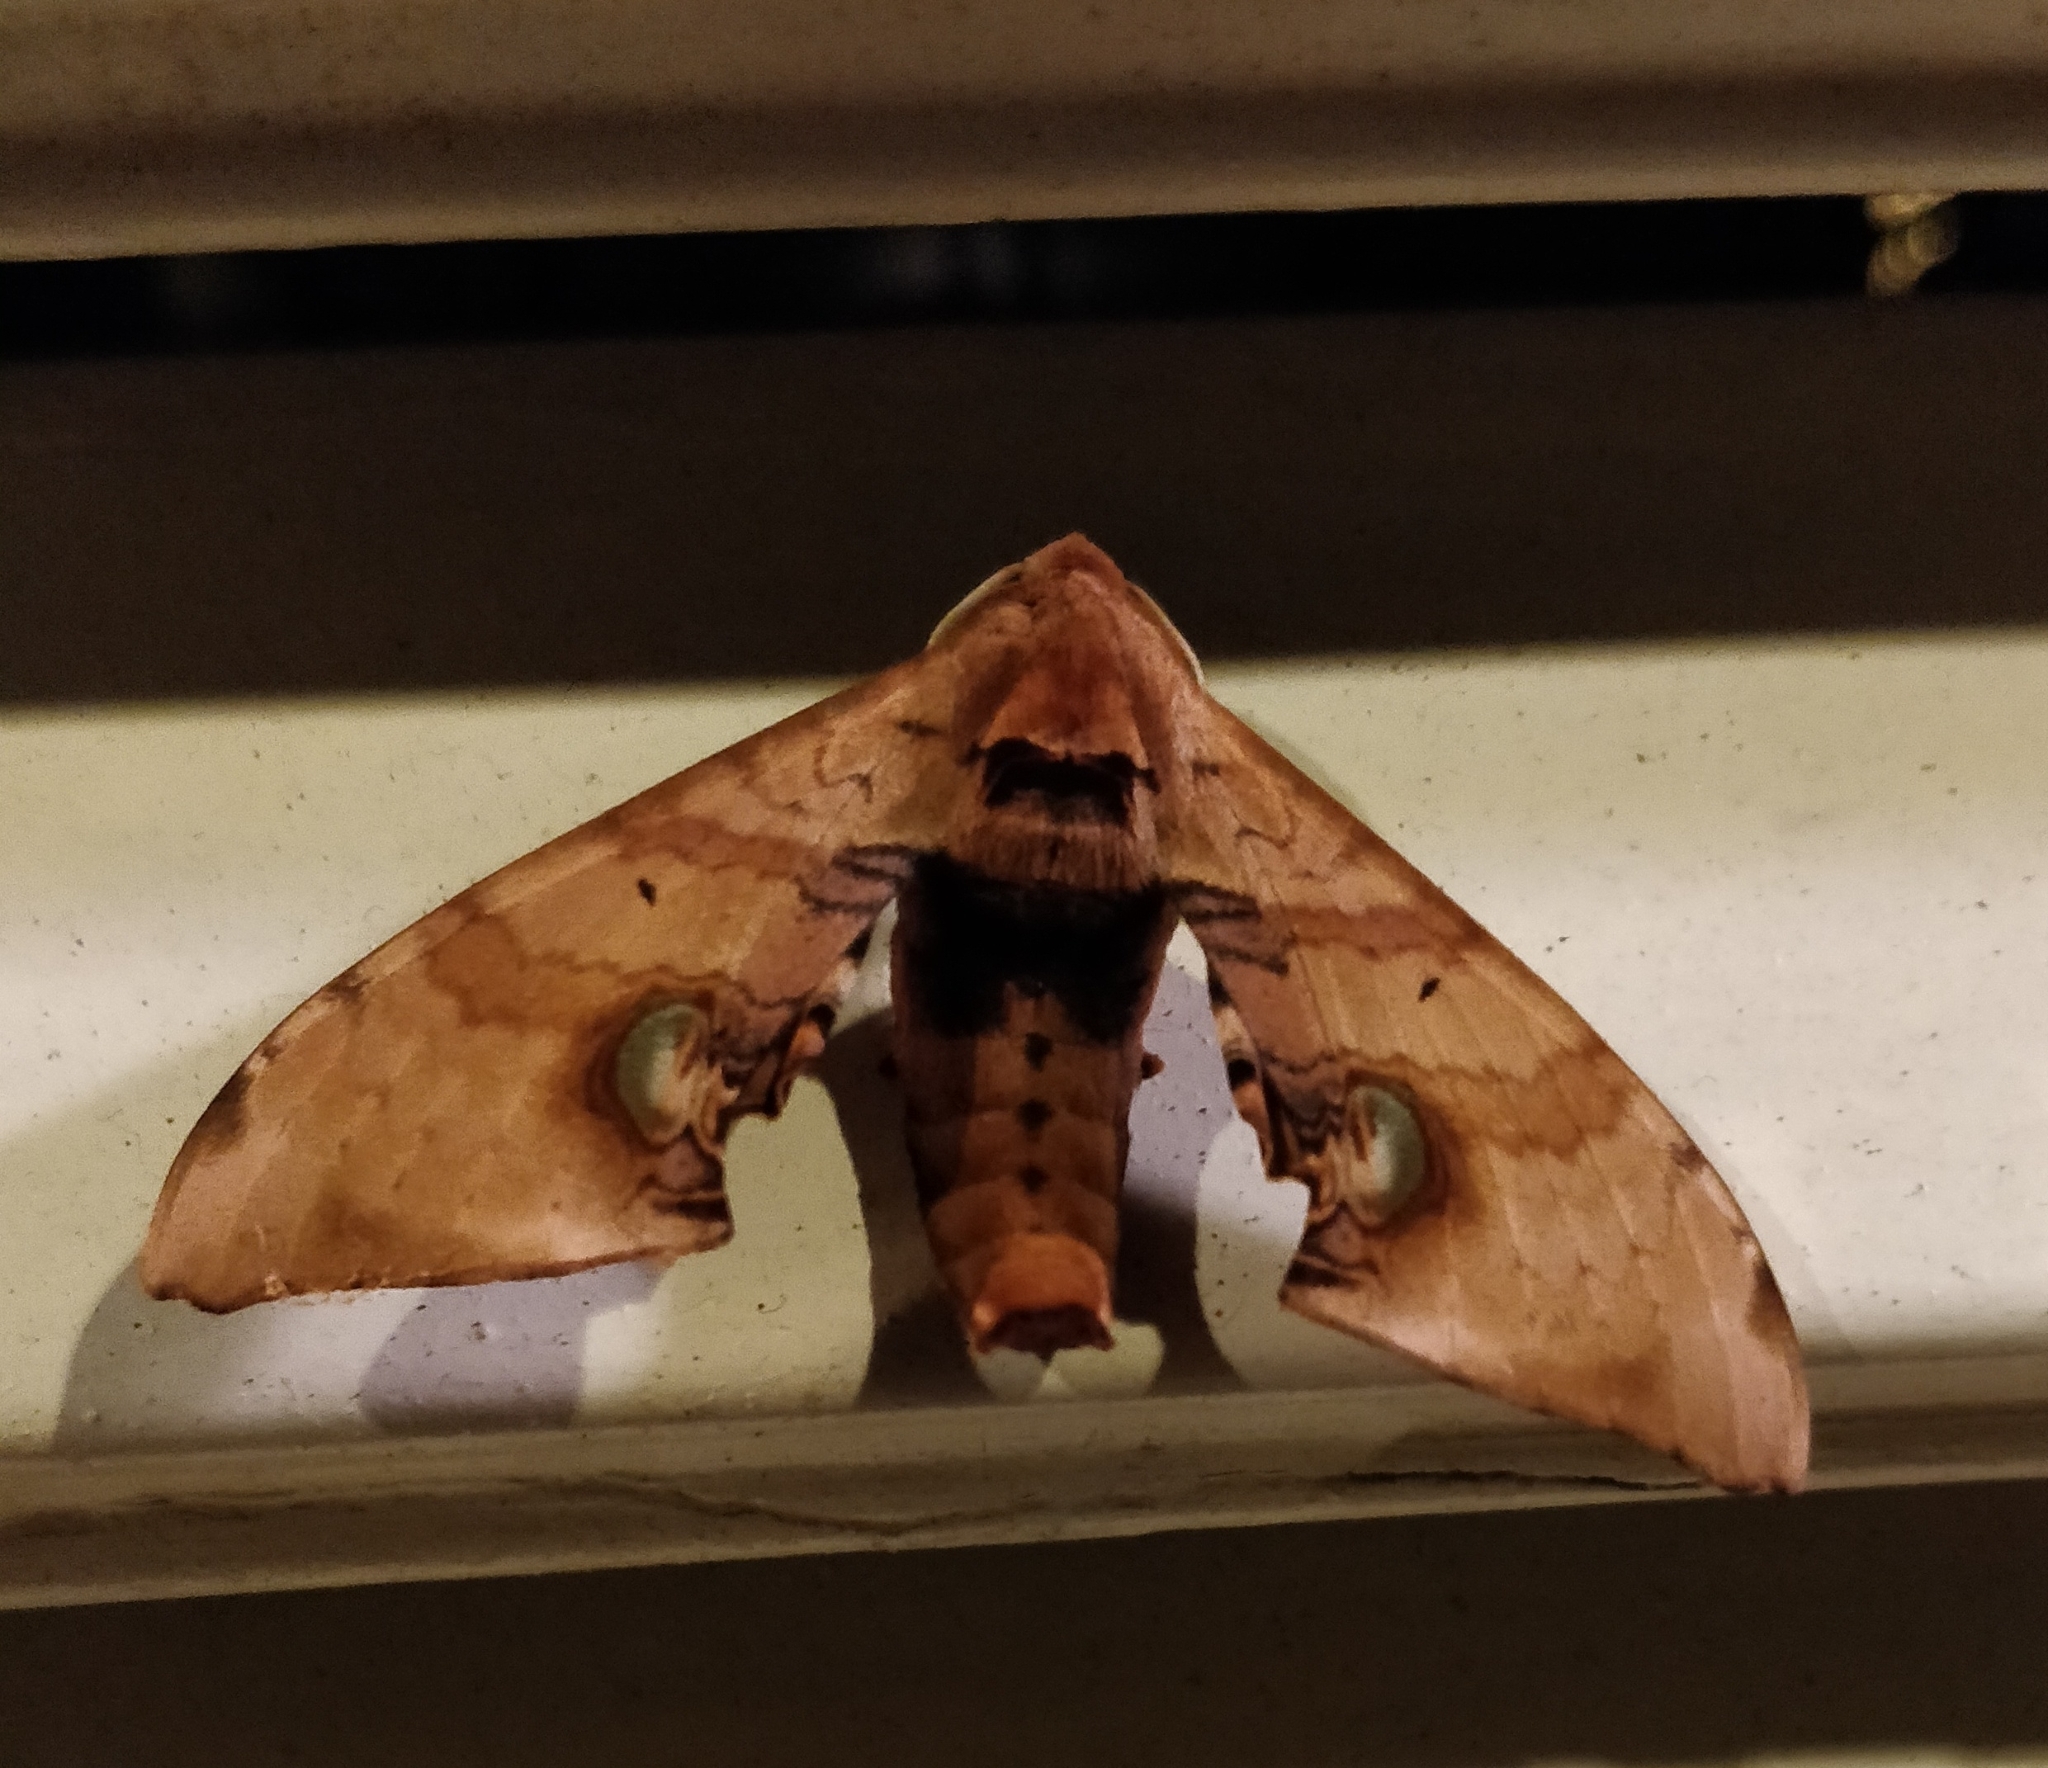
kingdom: Animalia
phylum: Arthropoda
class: Insecta
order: Lepidoptera
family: Sphingidae
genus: Daphnusa
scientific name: Daphnusa ocellaris
